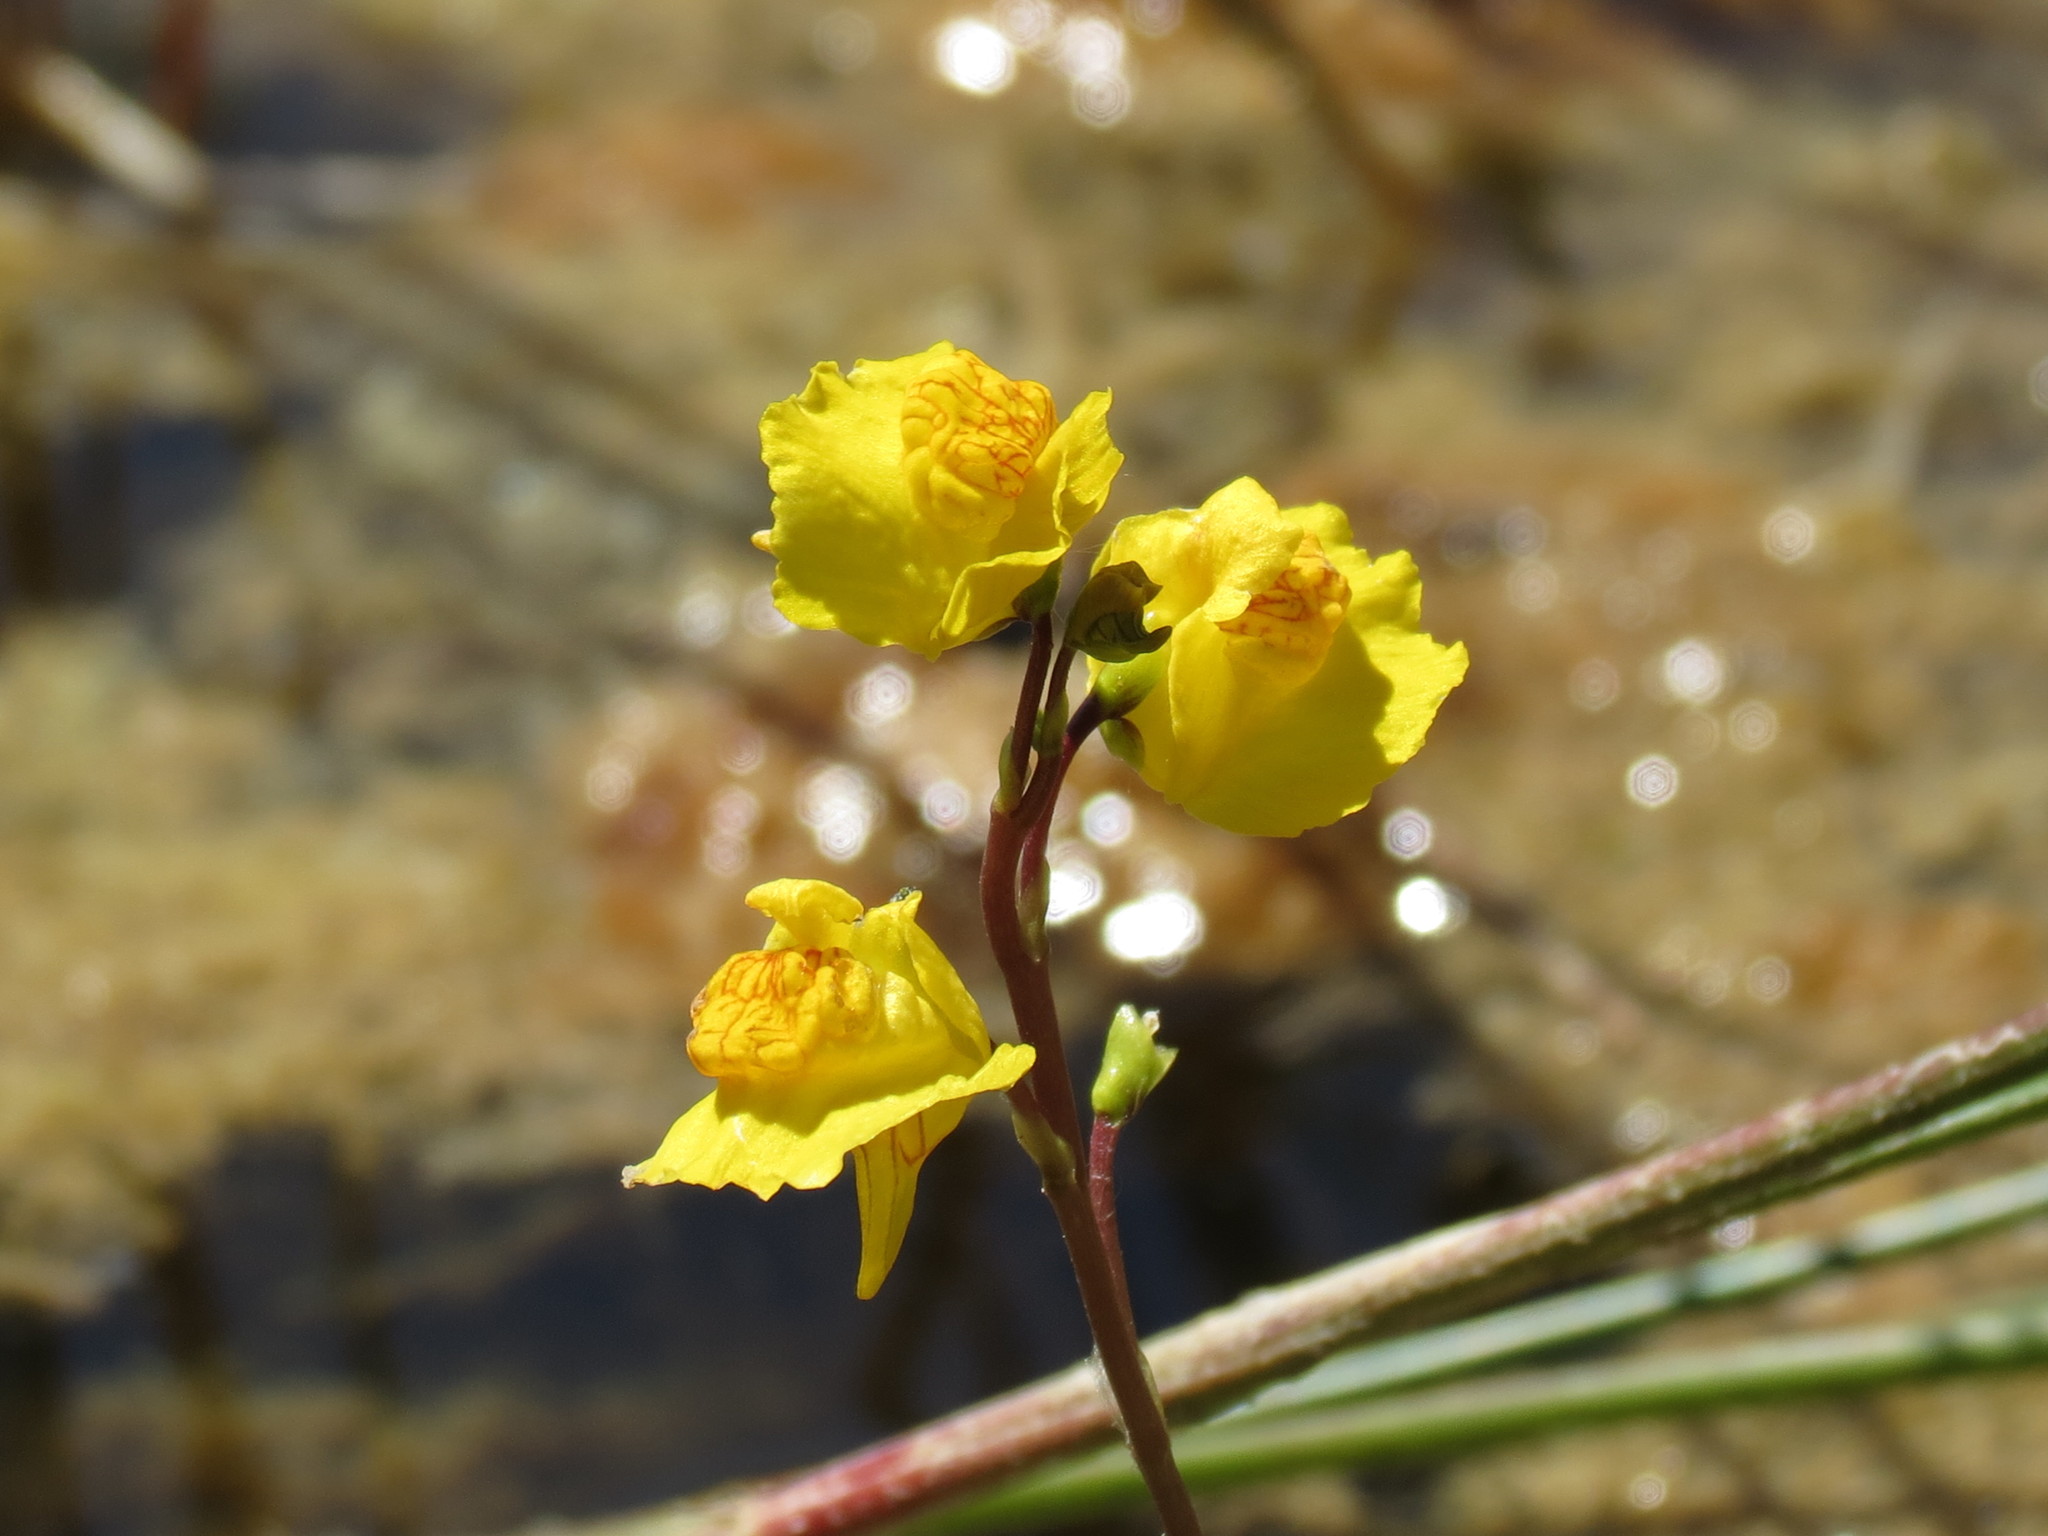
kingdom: Plantae
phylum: Tracheophyta
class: Magnoliopsida
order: Lamiales
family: Lentibulariaceae
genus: Utricularia
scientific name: Utricularia macrorhiza
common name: Common bladderwort
